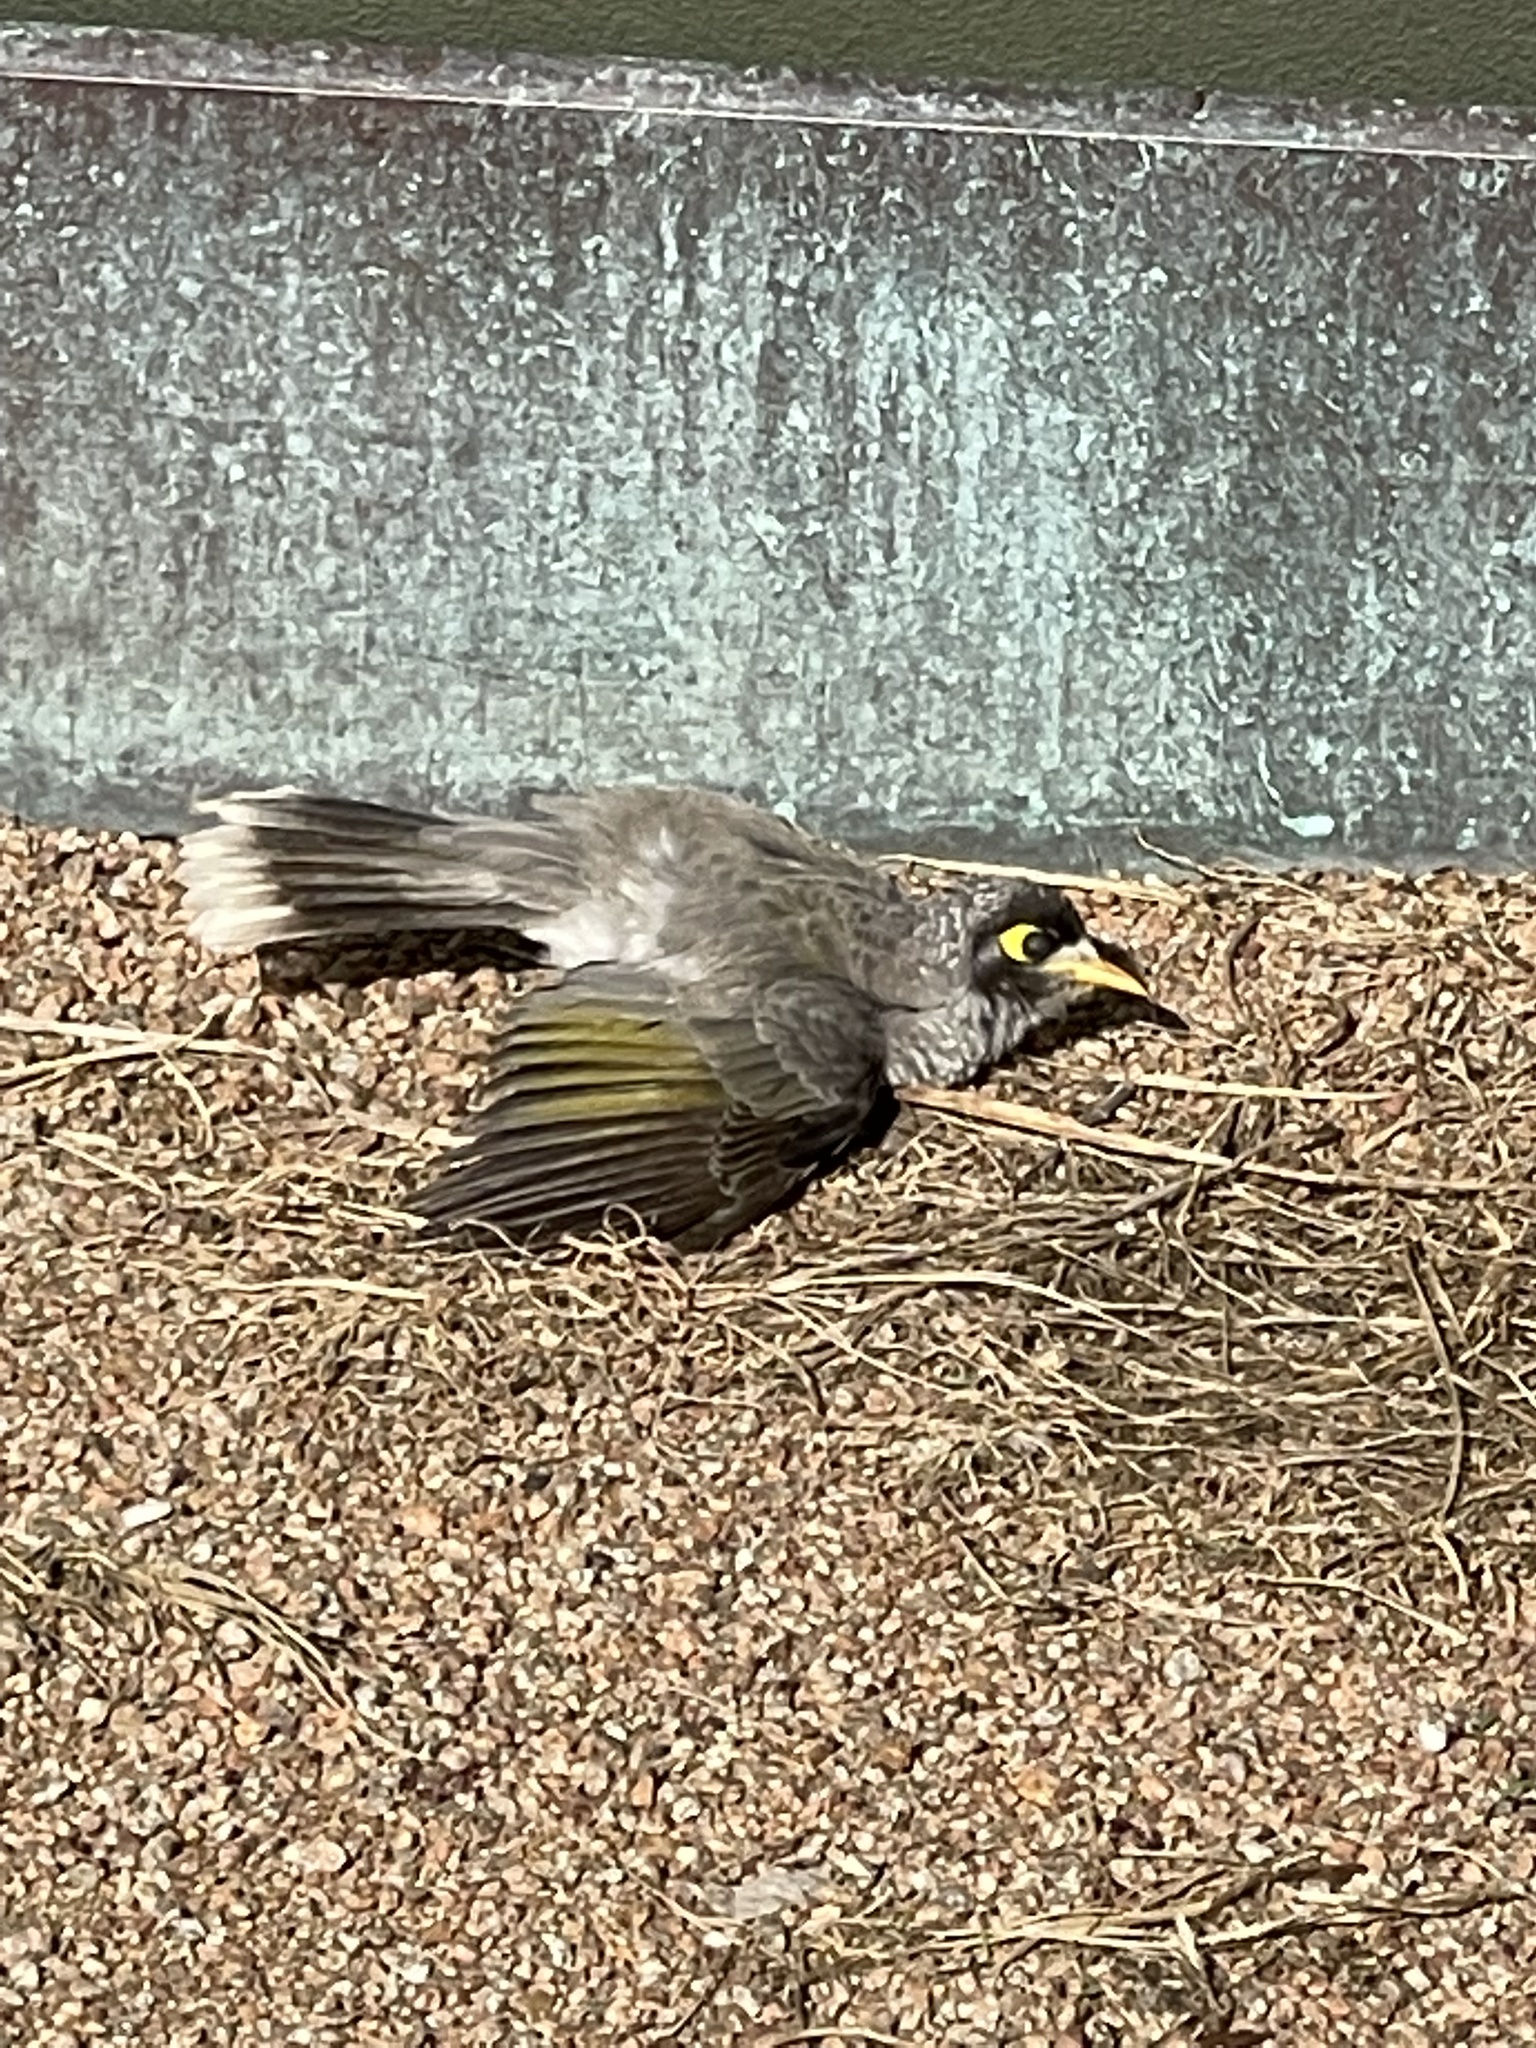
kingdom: Animalia
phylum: Chordata
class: Aves
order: Passeriformes
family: Meliphagidae
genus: Manorina
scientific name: Manorina melanocephala
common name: Noisy miner
